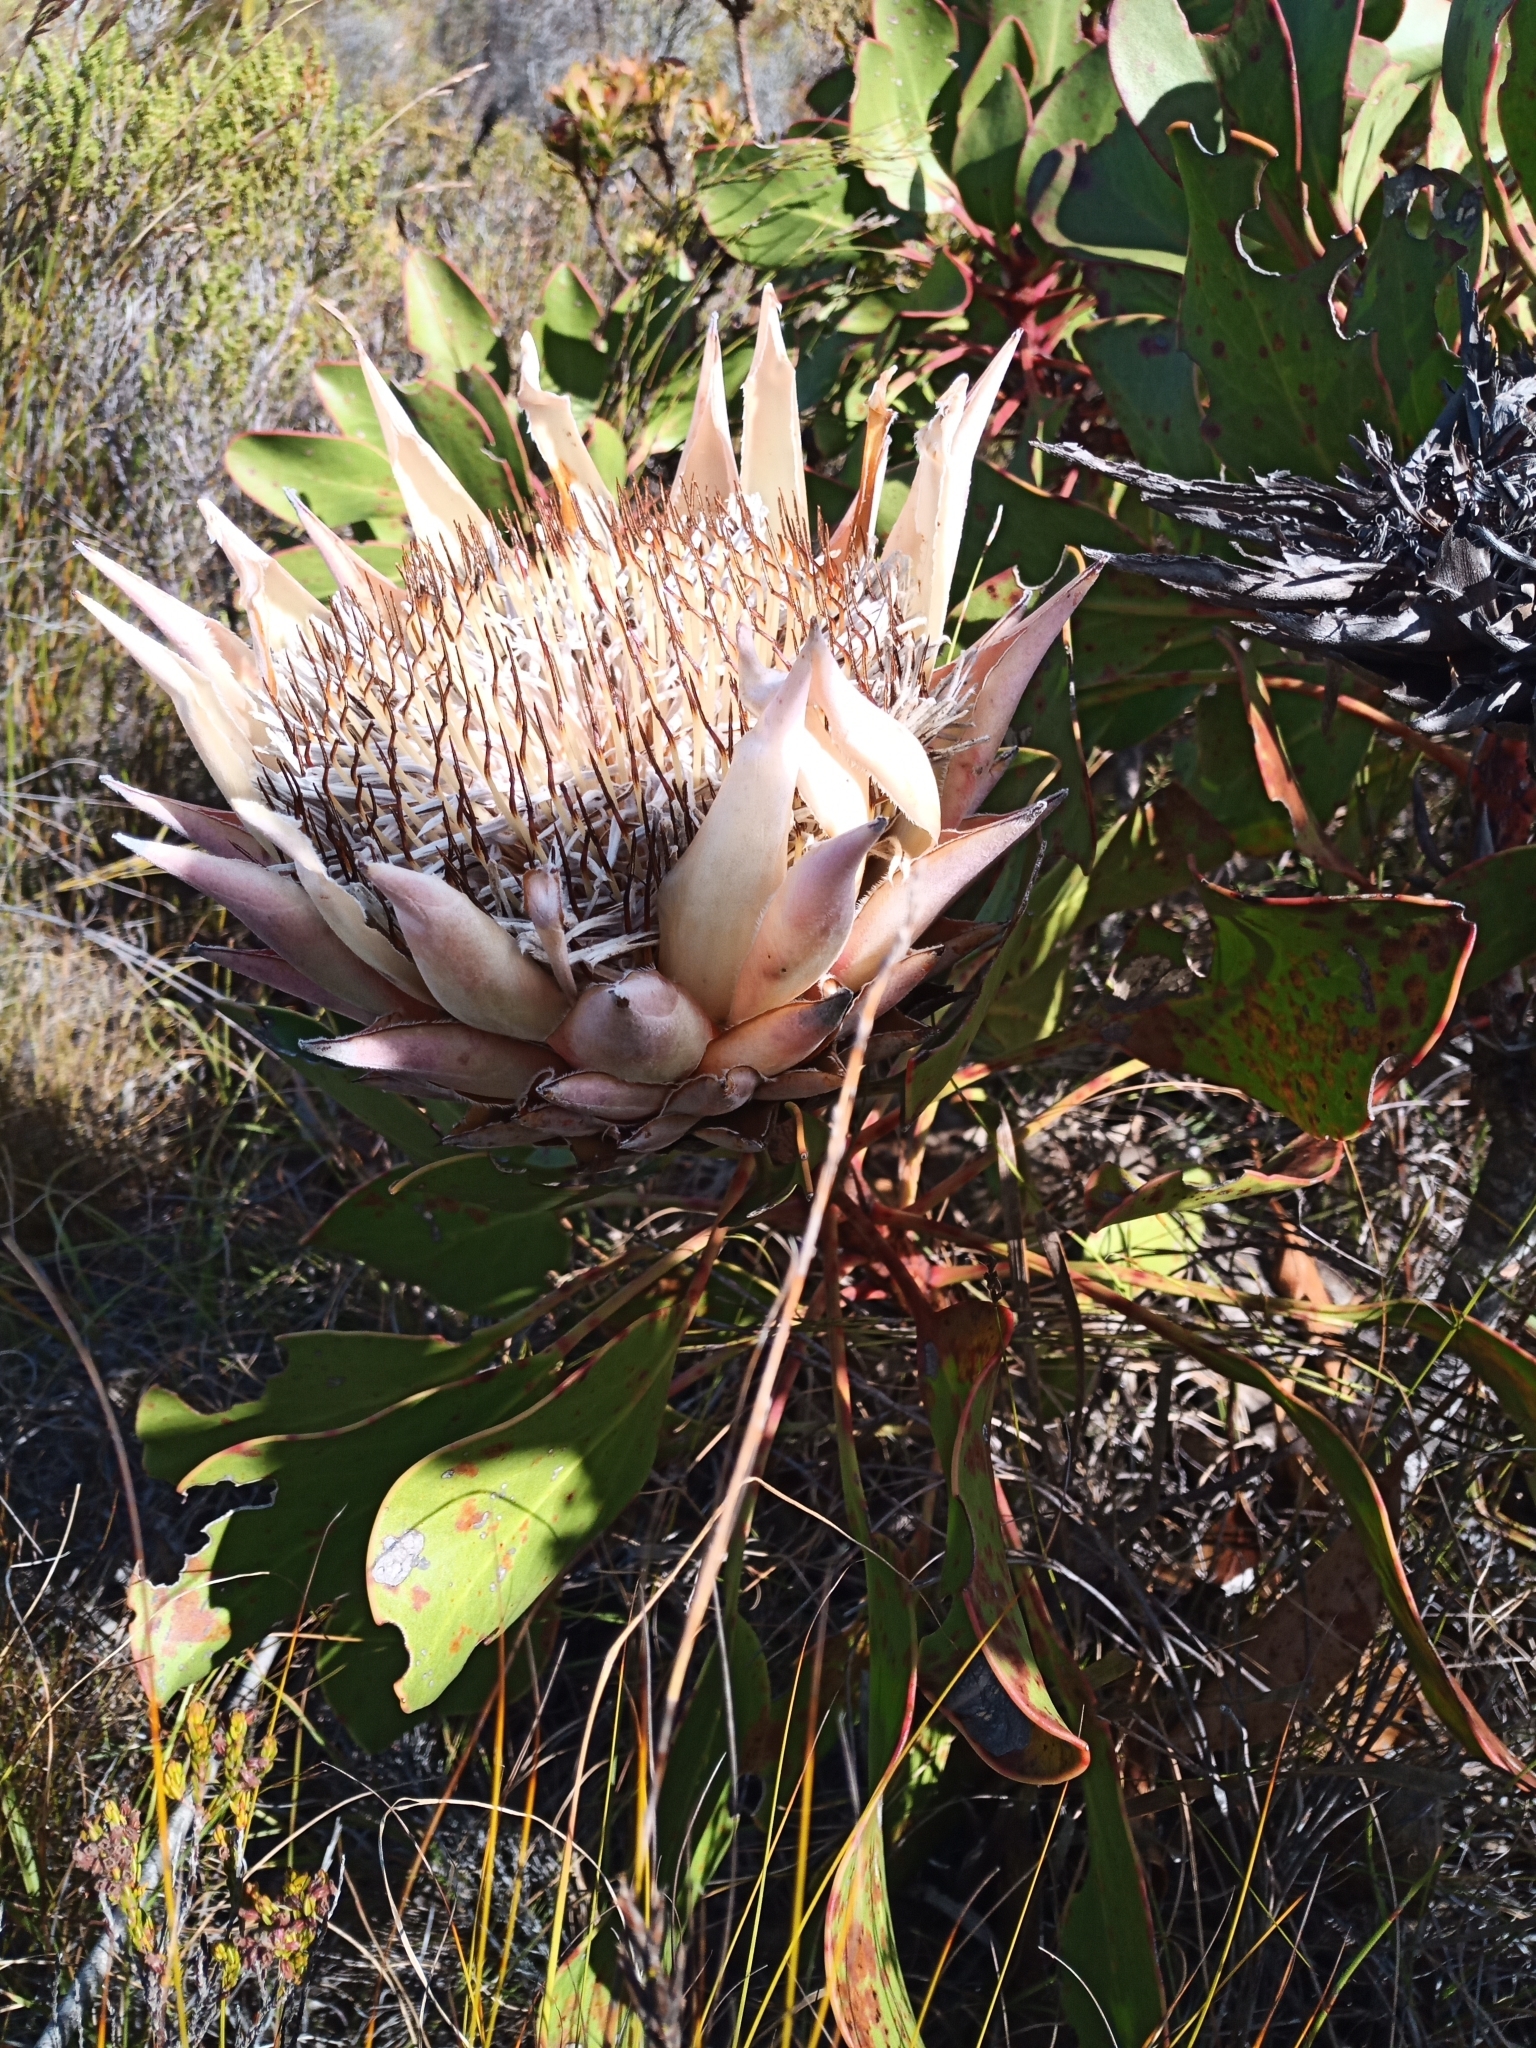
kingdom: Plantae
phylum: Tracheophyta
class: Magnoliopsida
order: Proteales
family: Proteaceae
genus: Protea
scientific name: Protea cynaroides
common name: King protea
